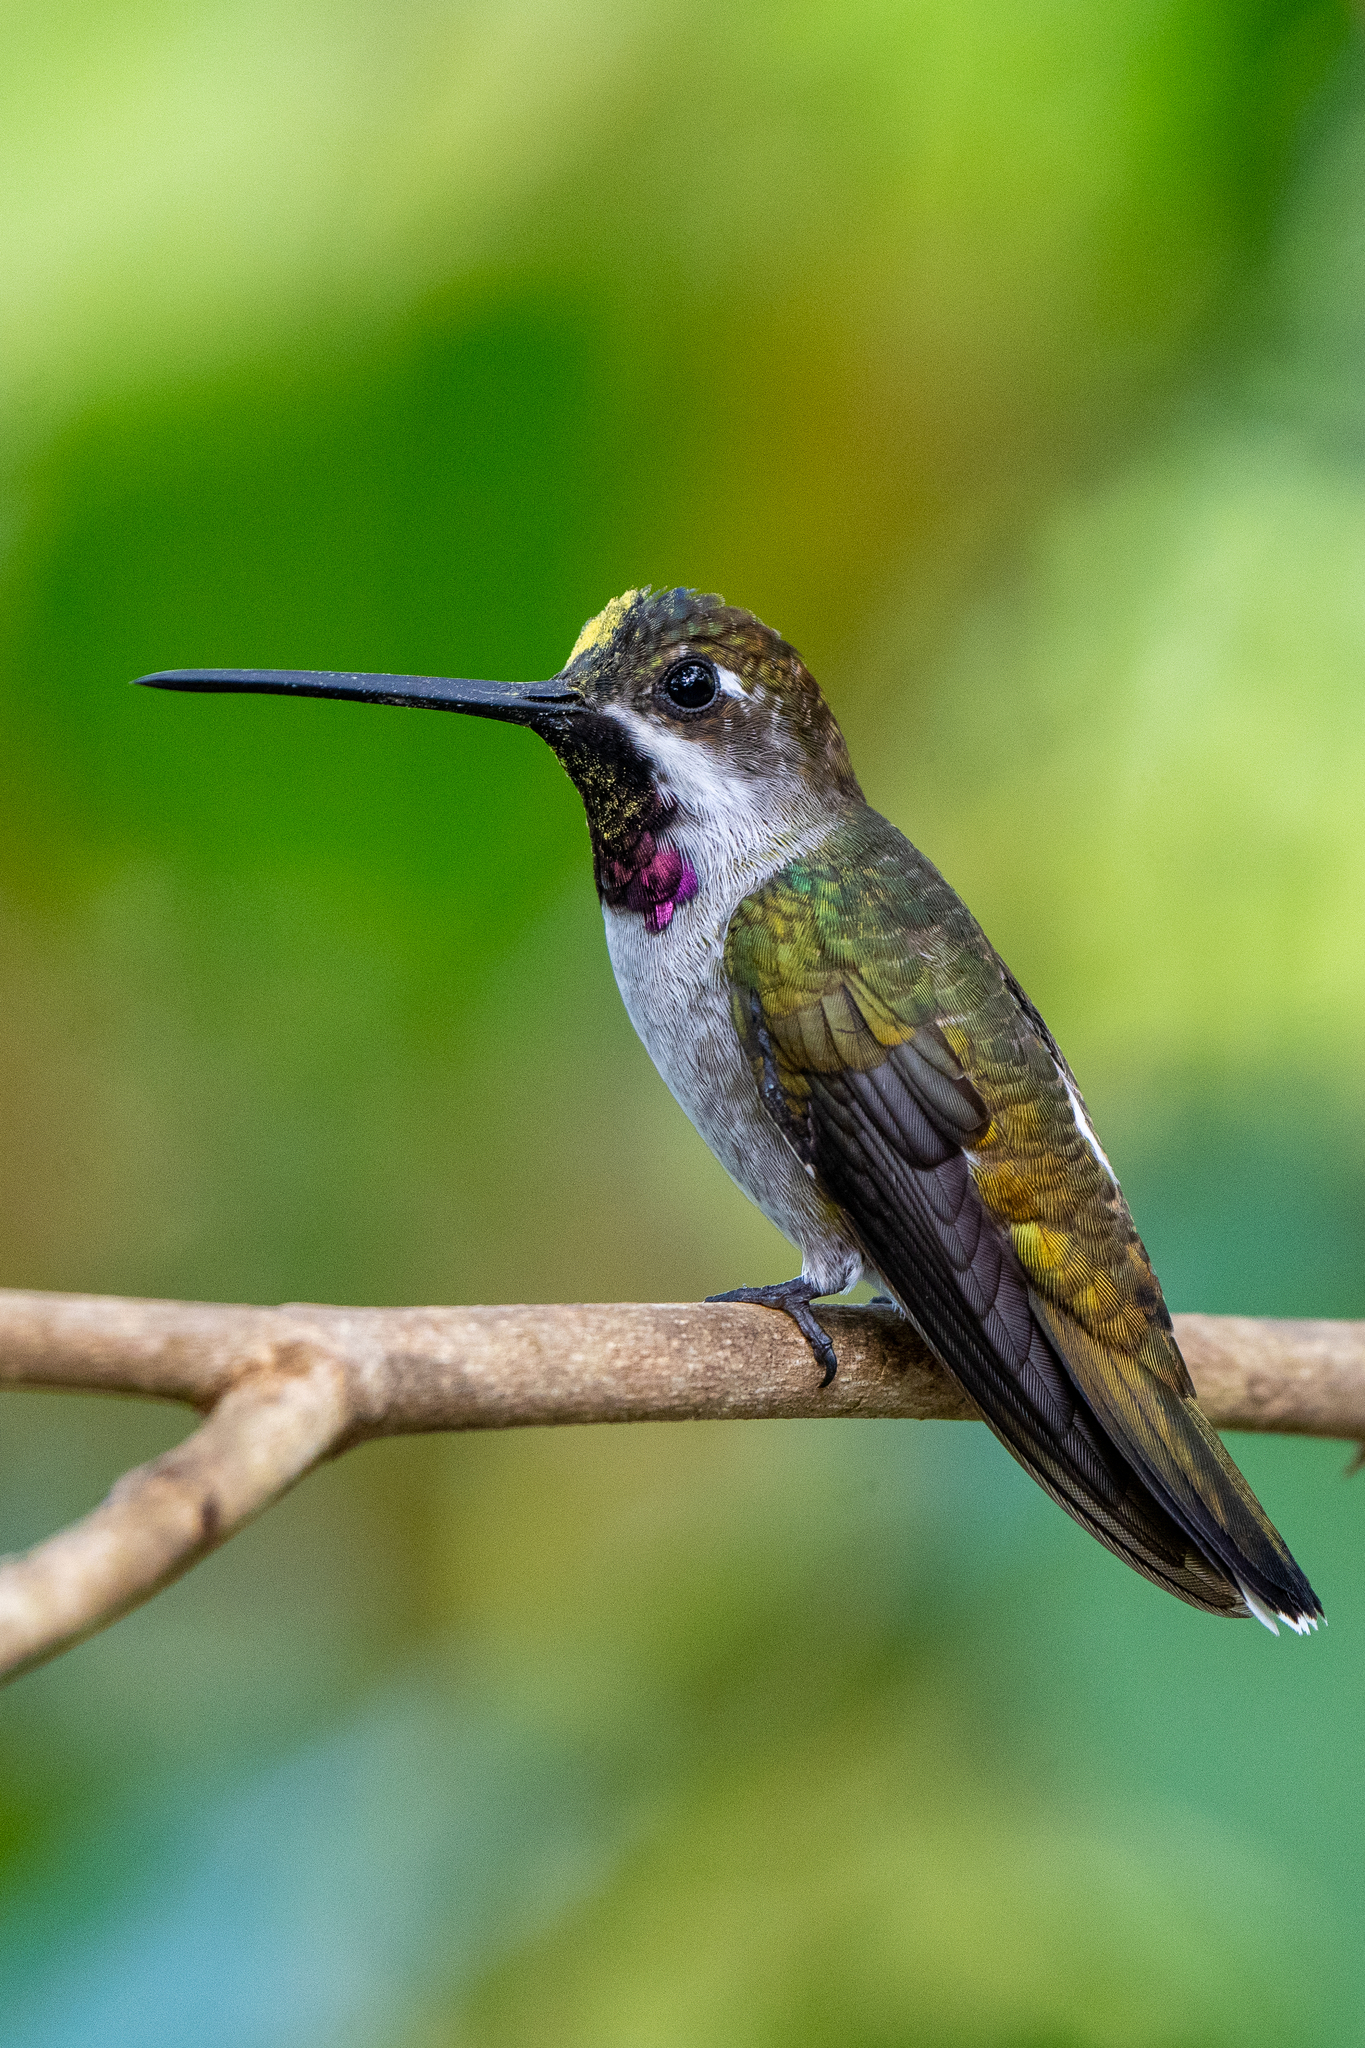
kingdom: Animalia
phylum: Chordata
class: Aves
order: Apodiformes
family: Trochilidae
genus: Heliomaster
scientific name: Heliomaster longirostris
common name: Long-billed starthroat
